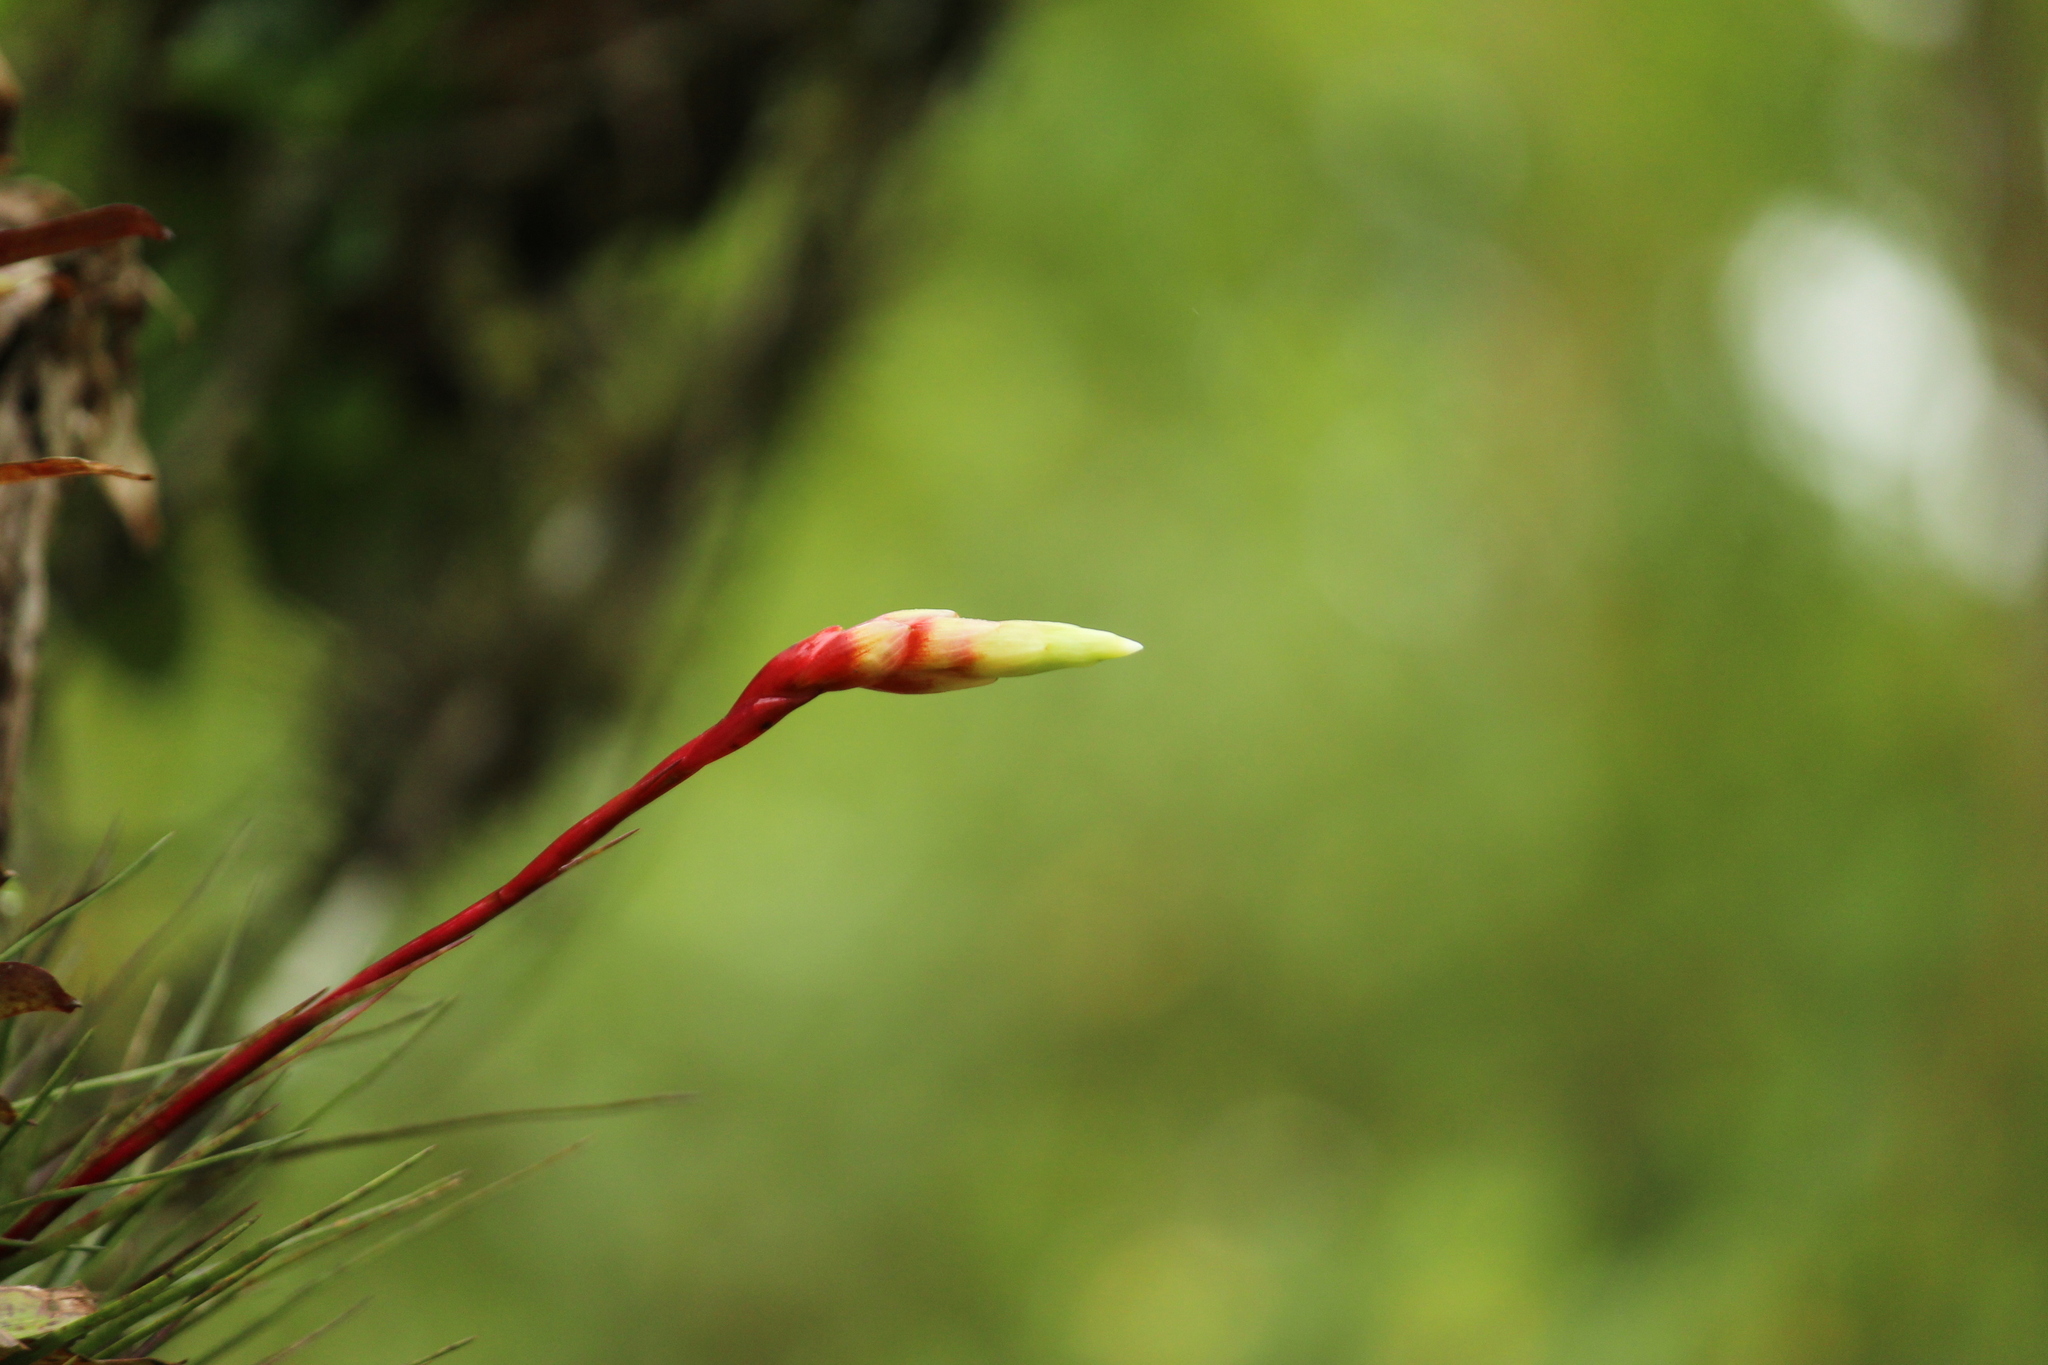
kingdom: Plantae
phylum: Tracheophyta
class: Liliopsida
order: Poales
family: Bromeliaceae
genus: Vriesea
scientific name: Vriesea flammea
